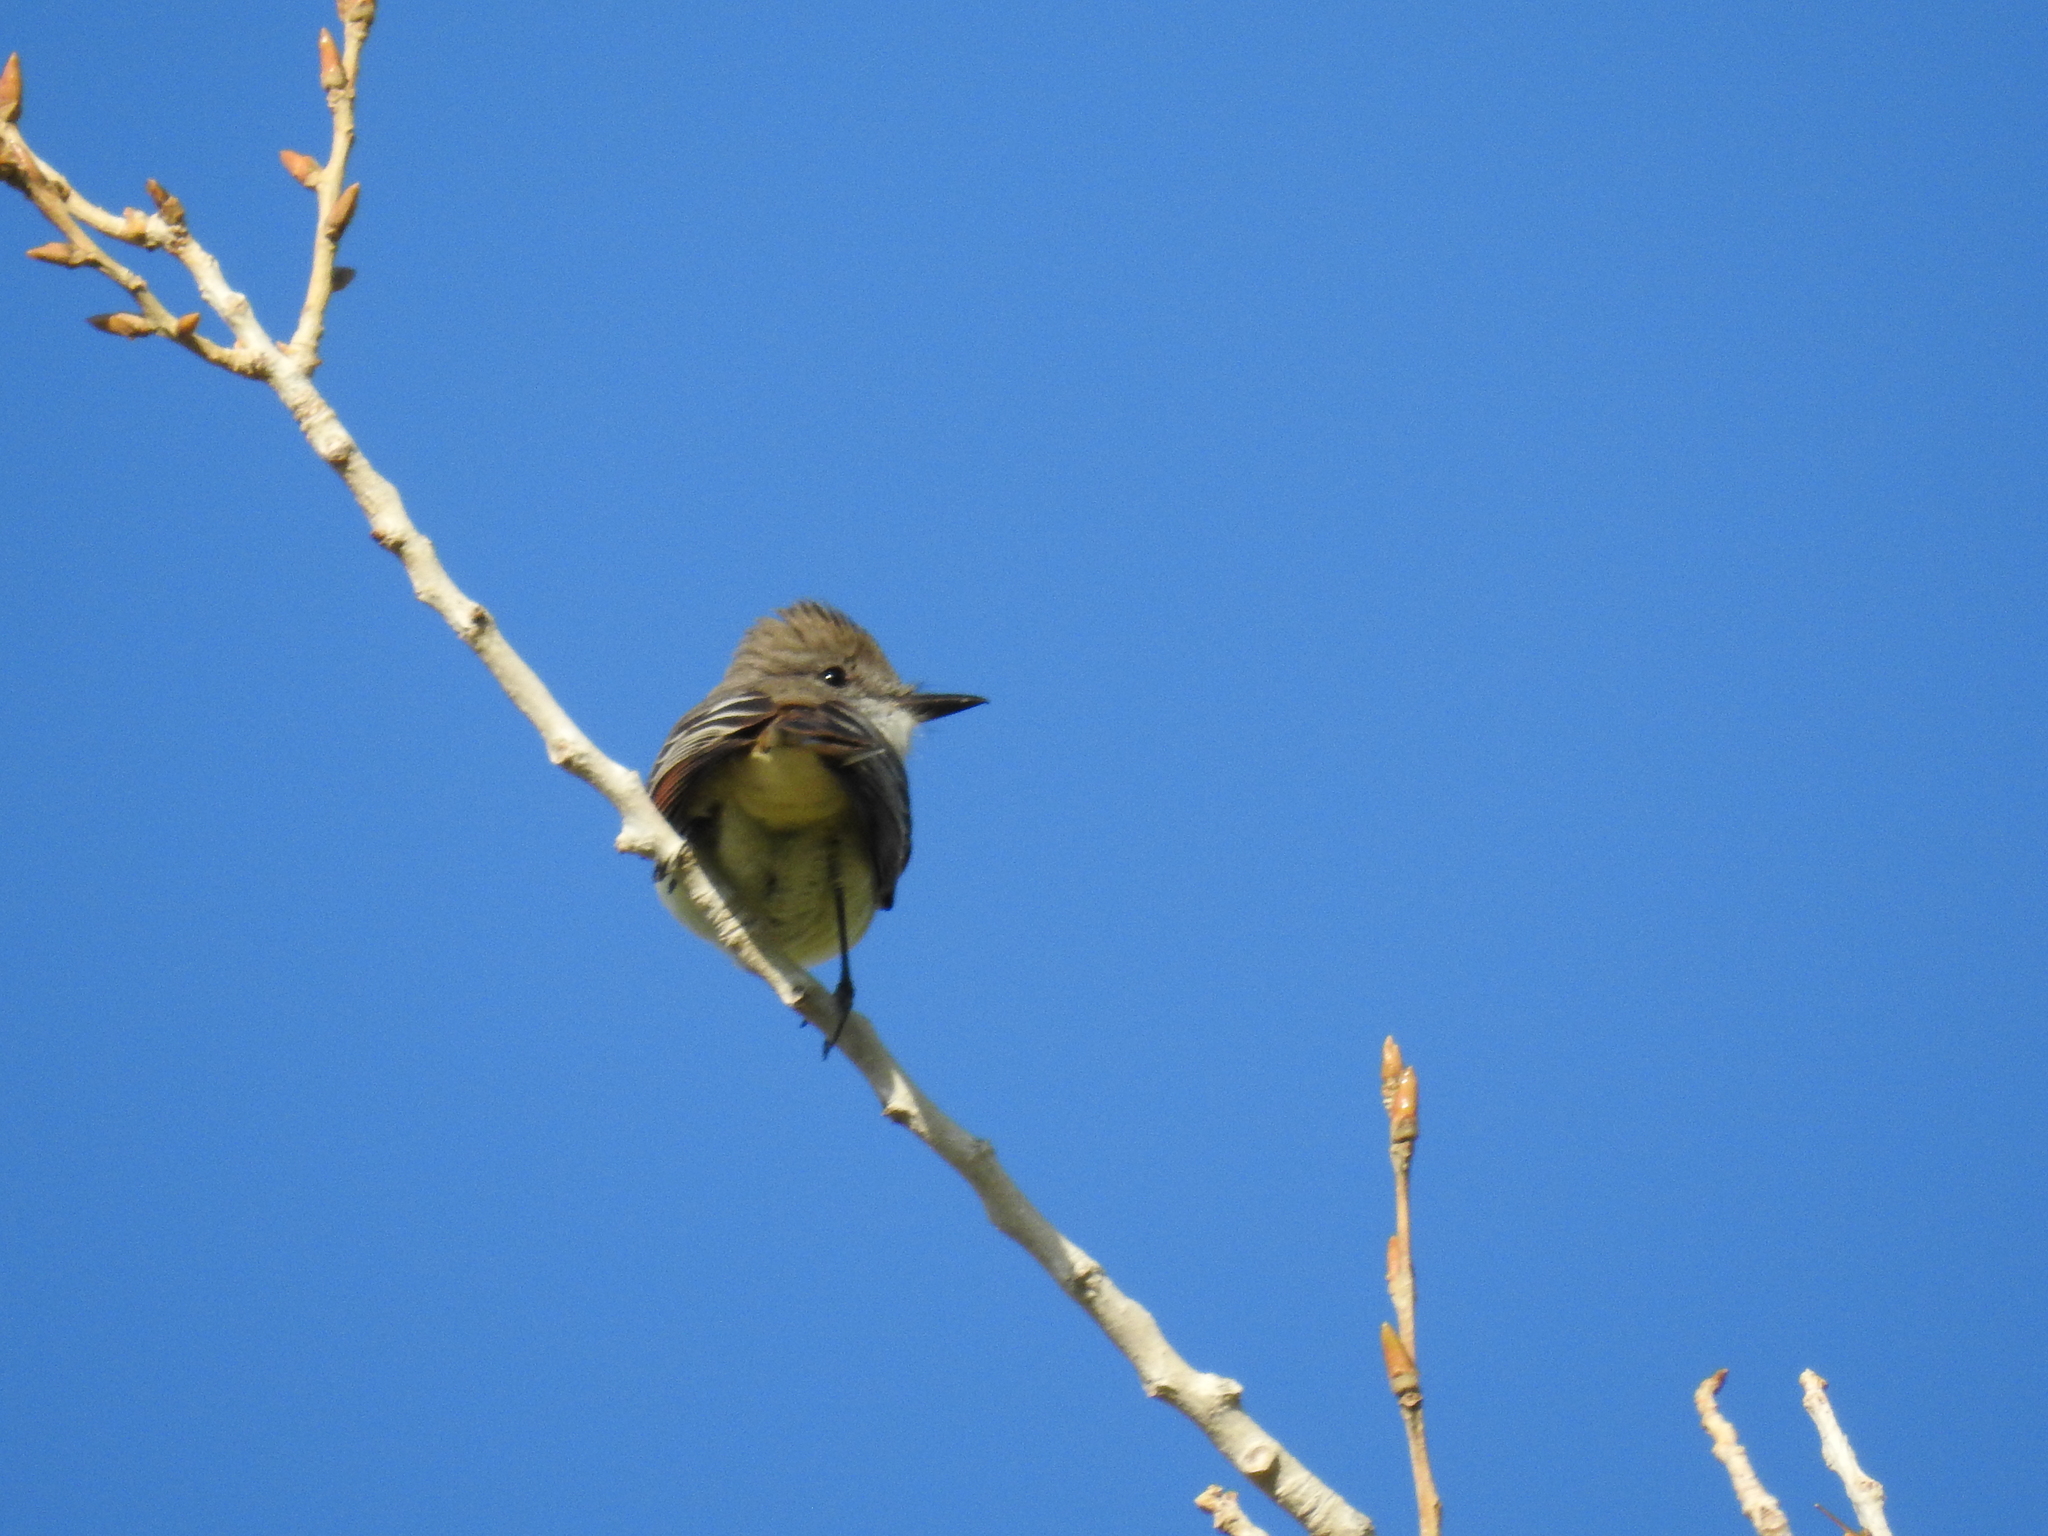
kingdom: Animalia
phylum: Chordata
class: Aves
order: Passeriformes
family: Tyrannidae
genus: Myiarchus
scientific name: Myiarchus cinerascens
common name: Ash-throated flycatcher
